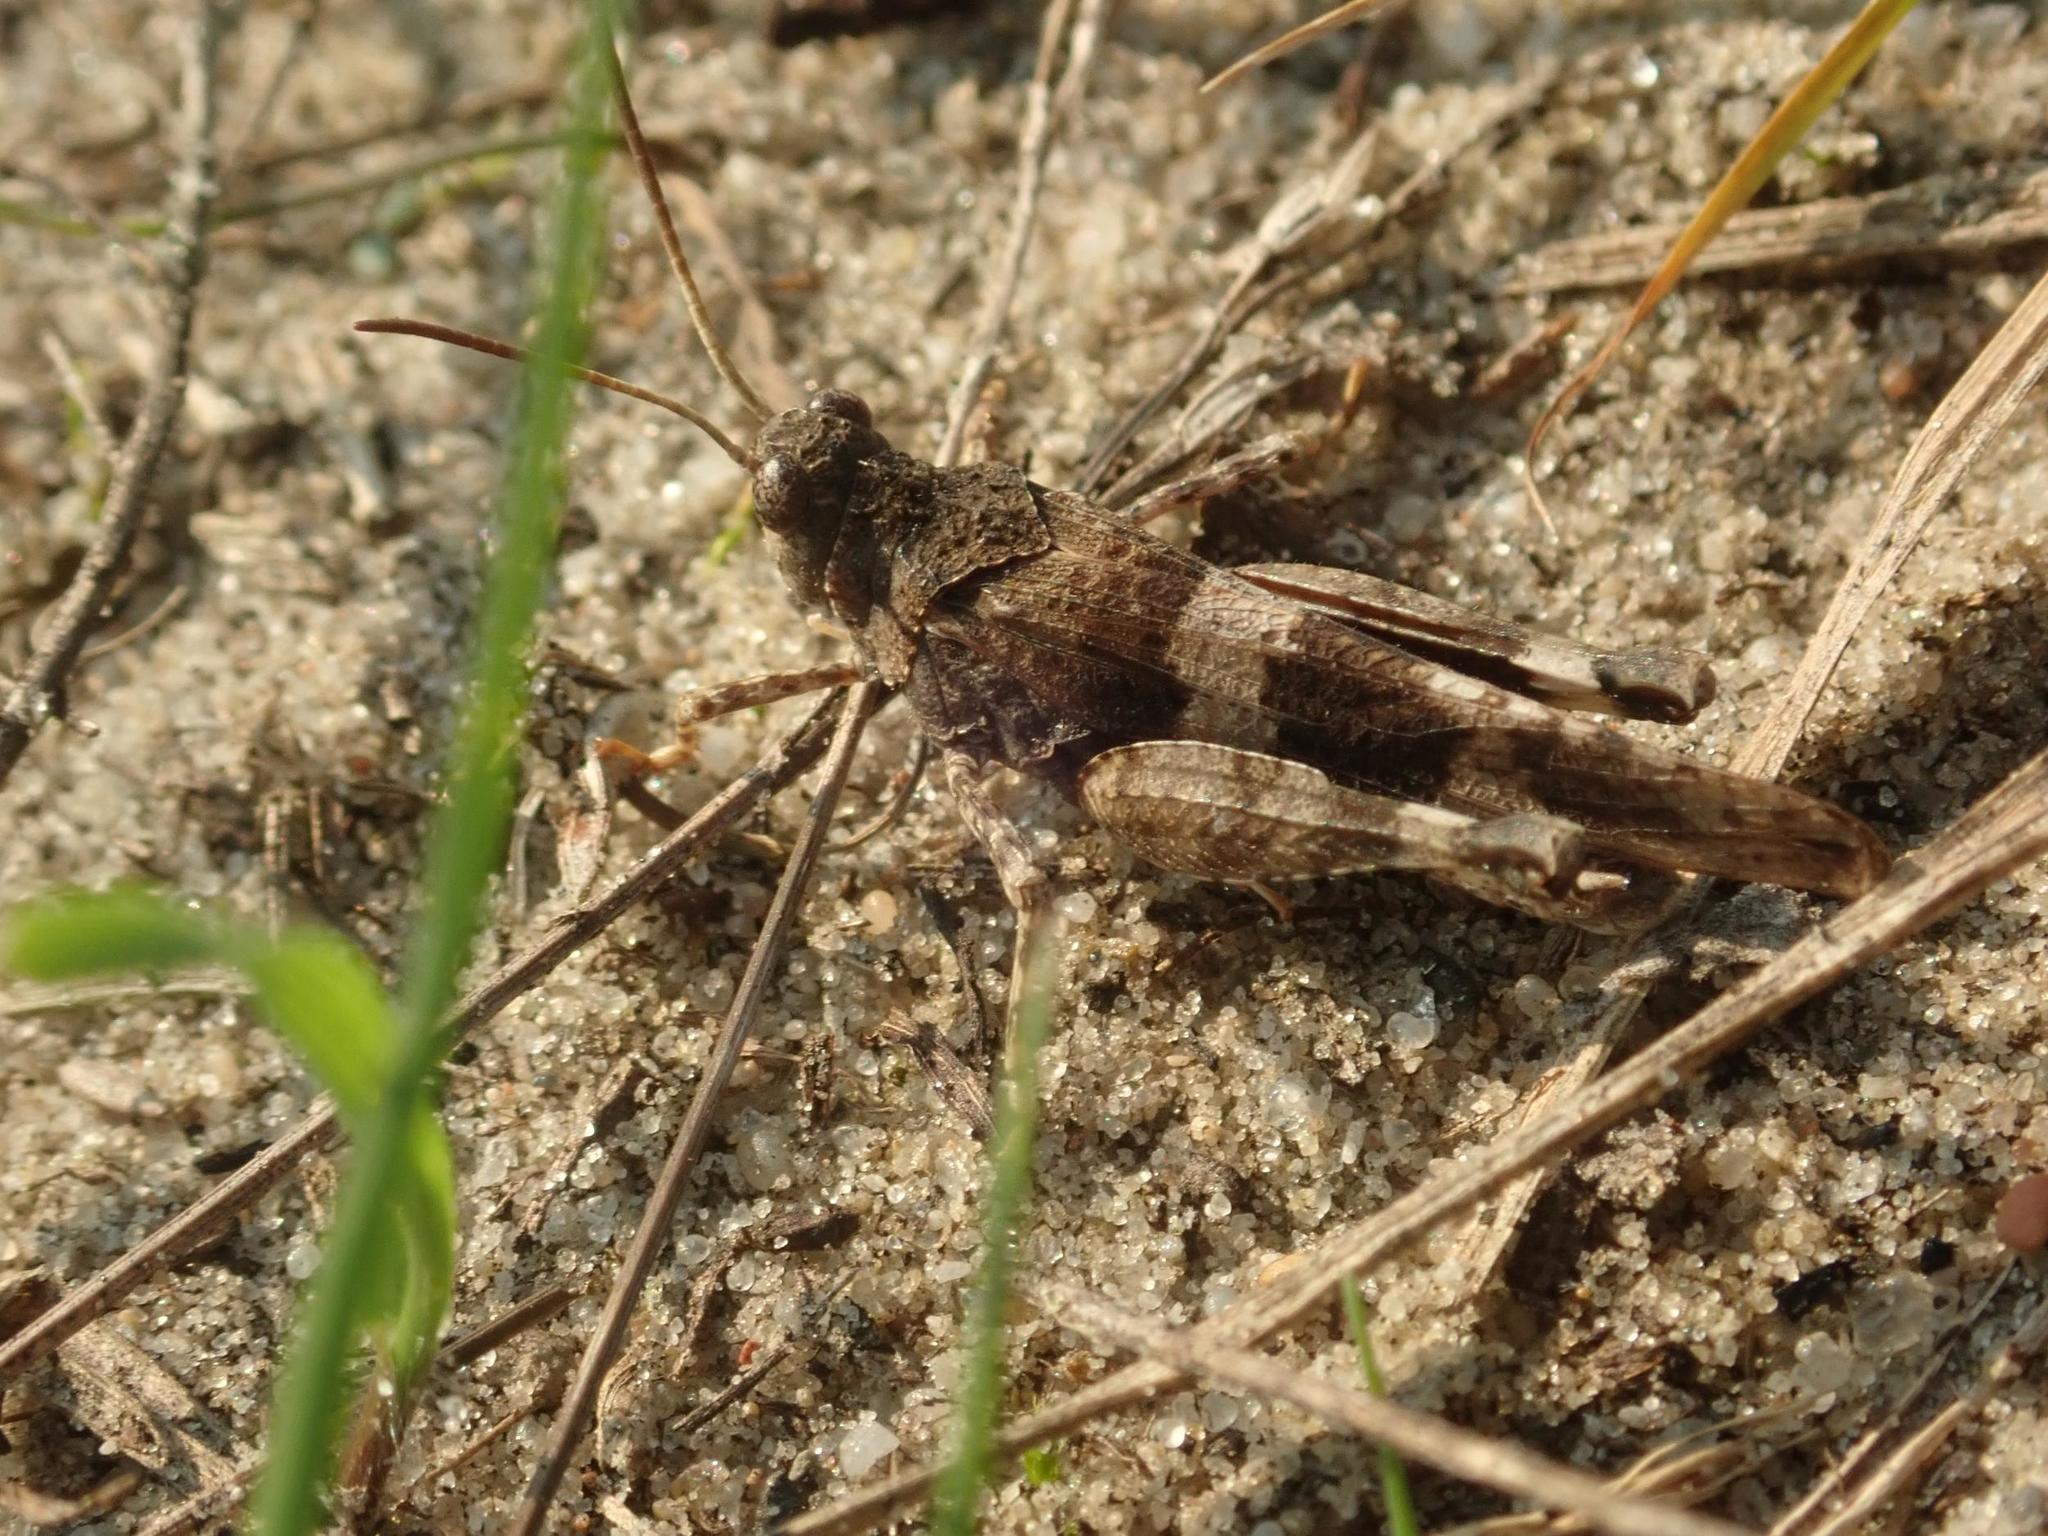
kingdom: Animalia
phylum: Arthropoda
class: Insecta
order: Orthoptera
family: Acrididae
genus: Oedipoda
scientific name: Oedipoda caerulescens
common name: Blue-winged grasshopper
